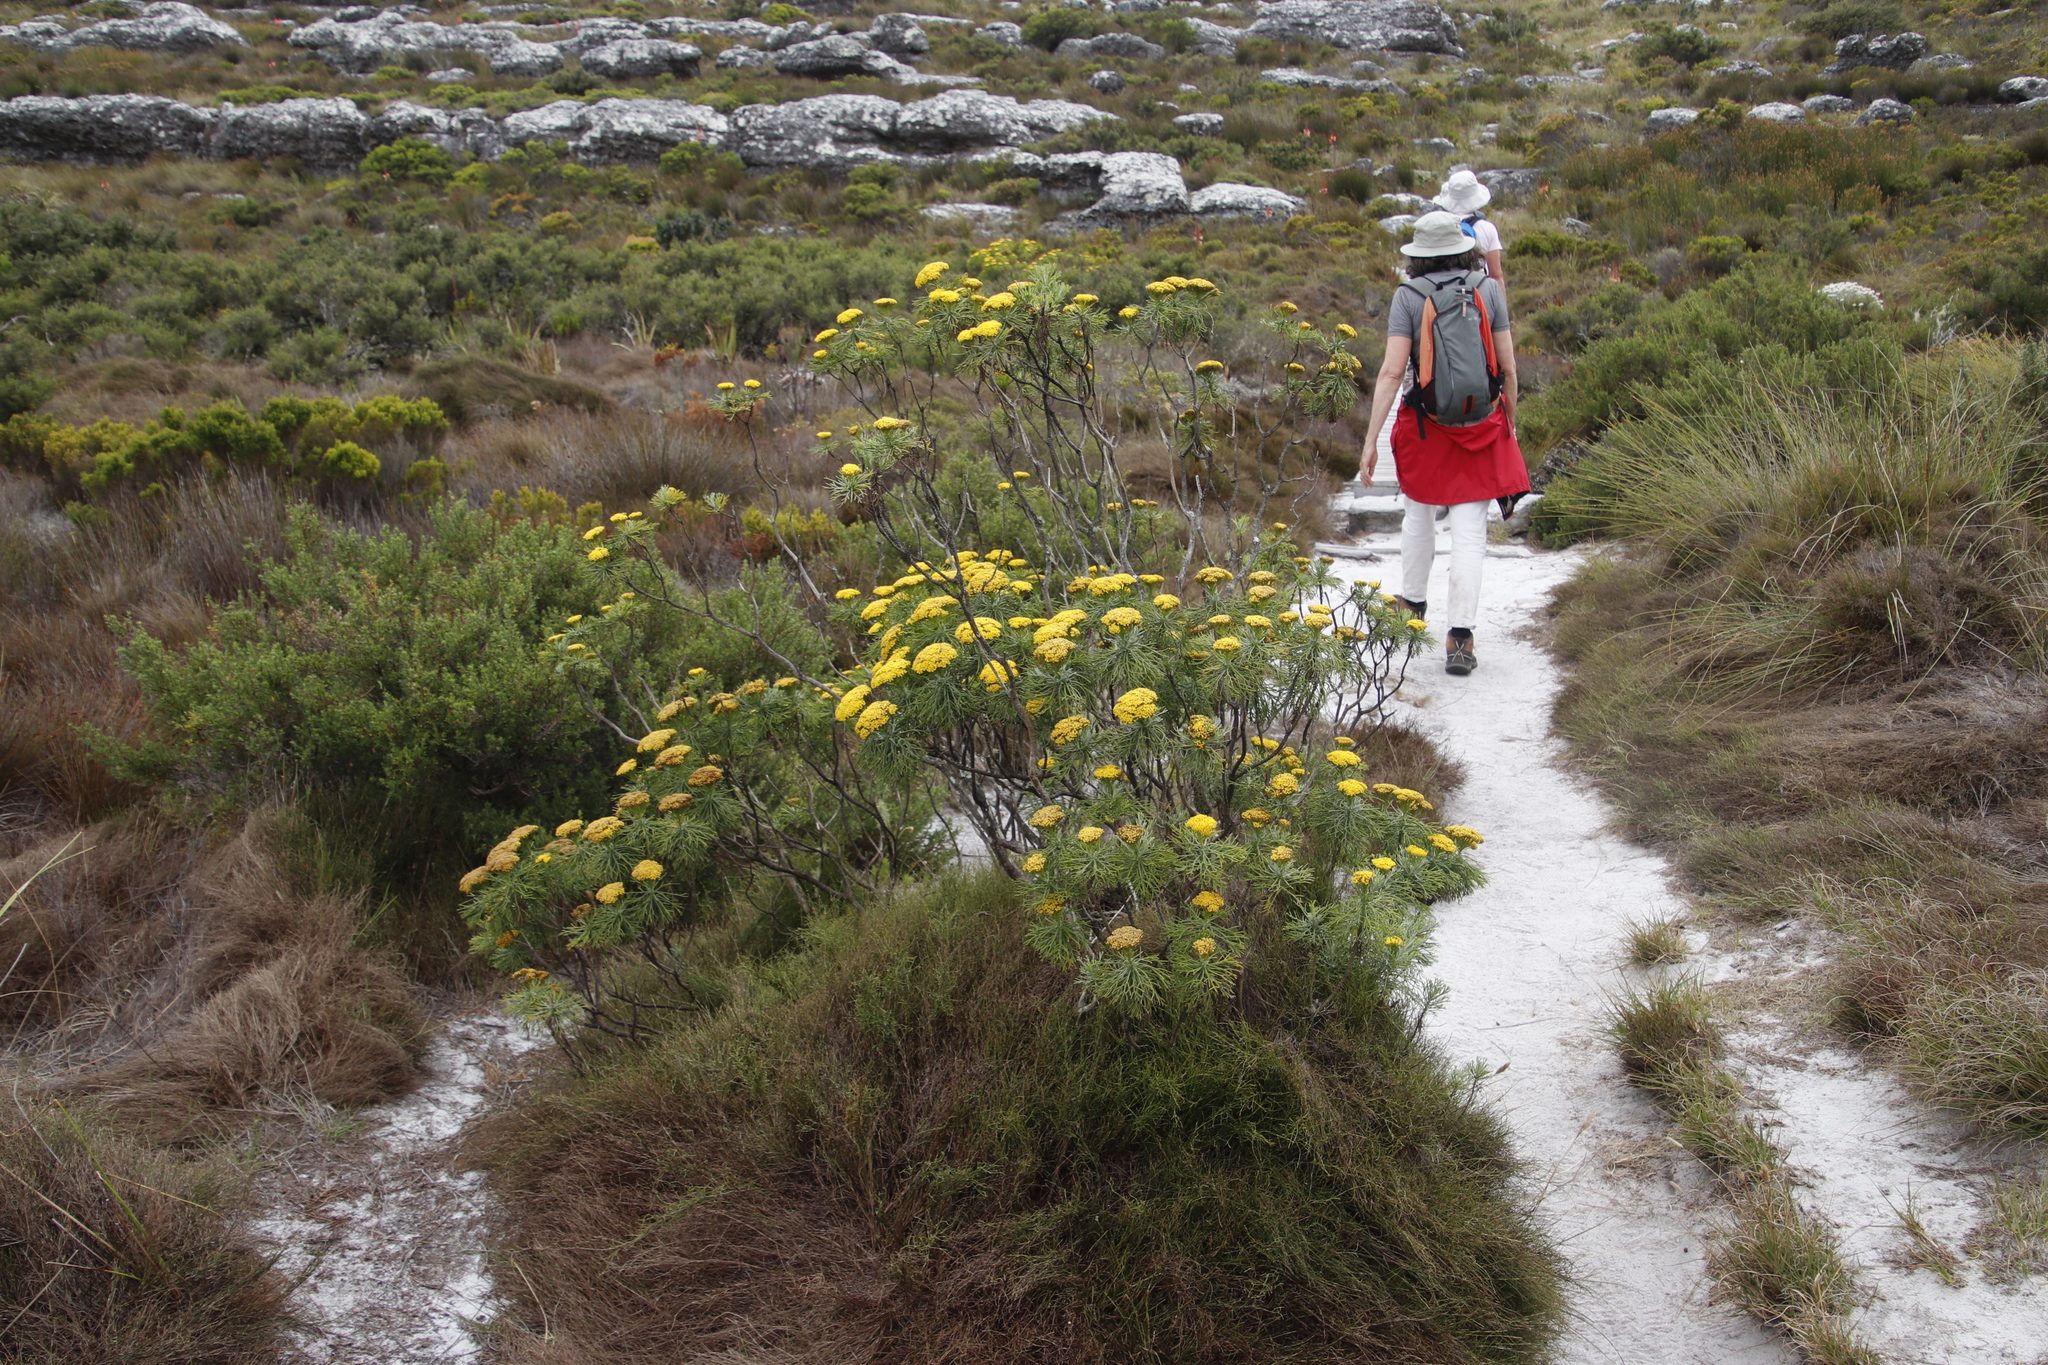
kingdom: Plantae
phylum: Tracheophyta
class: Magnoliopsida
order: Asterales
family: Asteraceae
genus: Hymenolepis
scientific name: Hymenolepis crithmifolia
